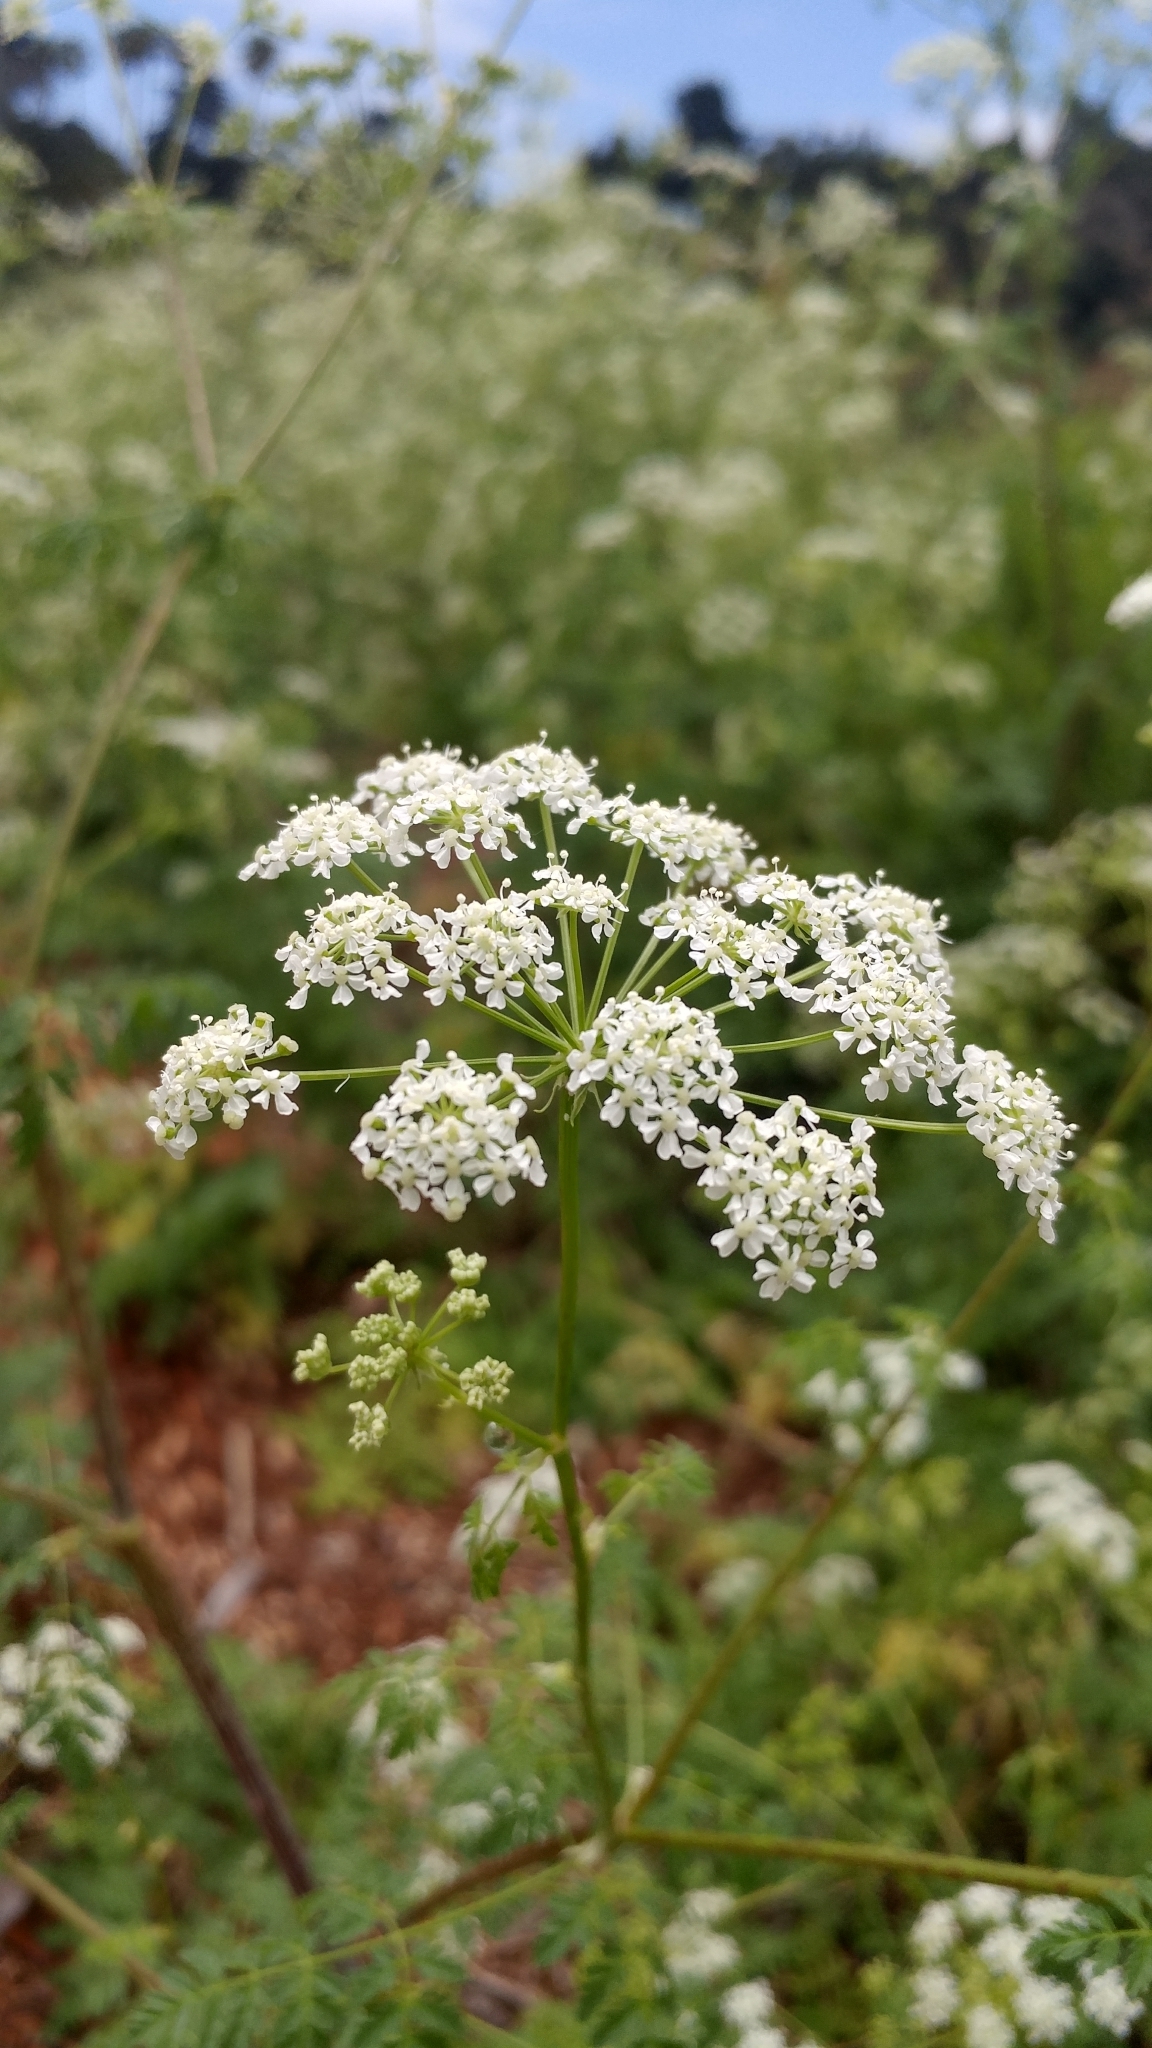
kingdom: Plantae
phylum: Tracheophyta
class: Magnoliopsida
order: Apiales
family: Apiaceae
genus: Conium
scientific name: Conium maculatum
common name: Hemlock
